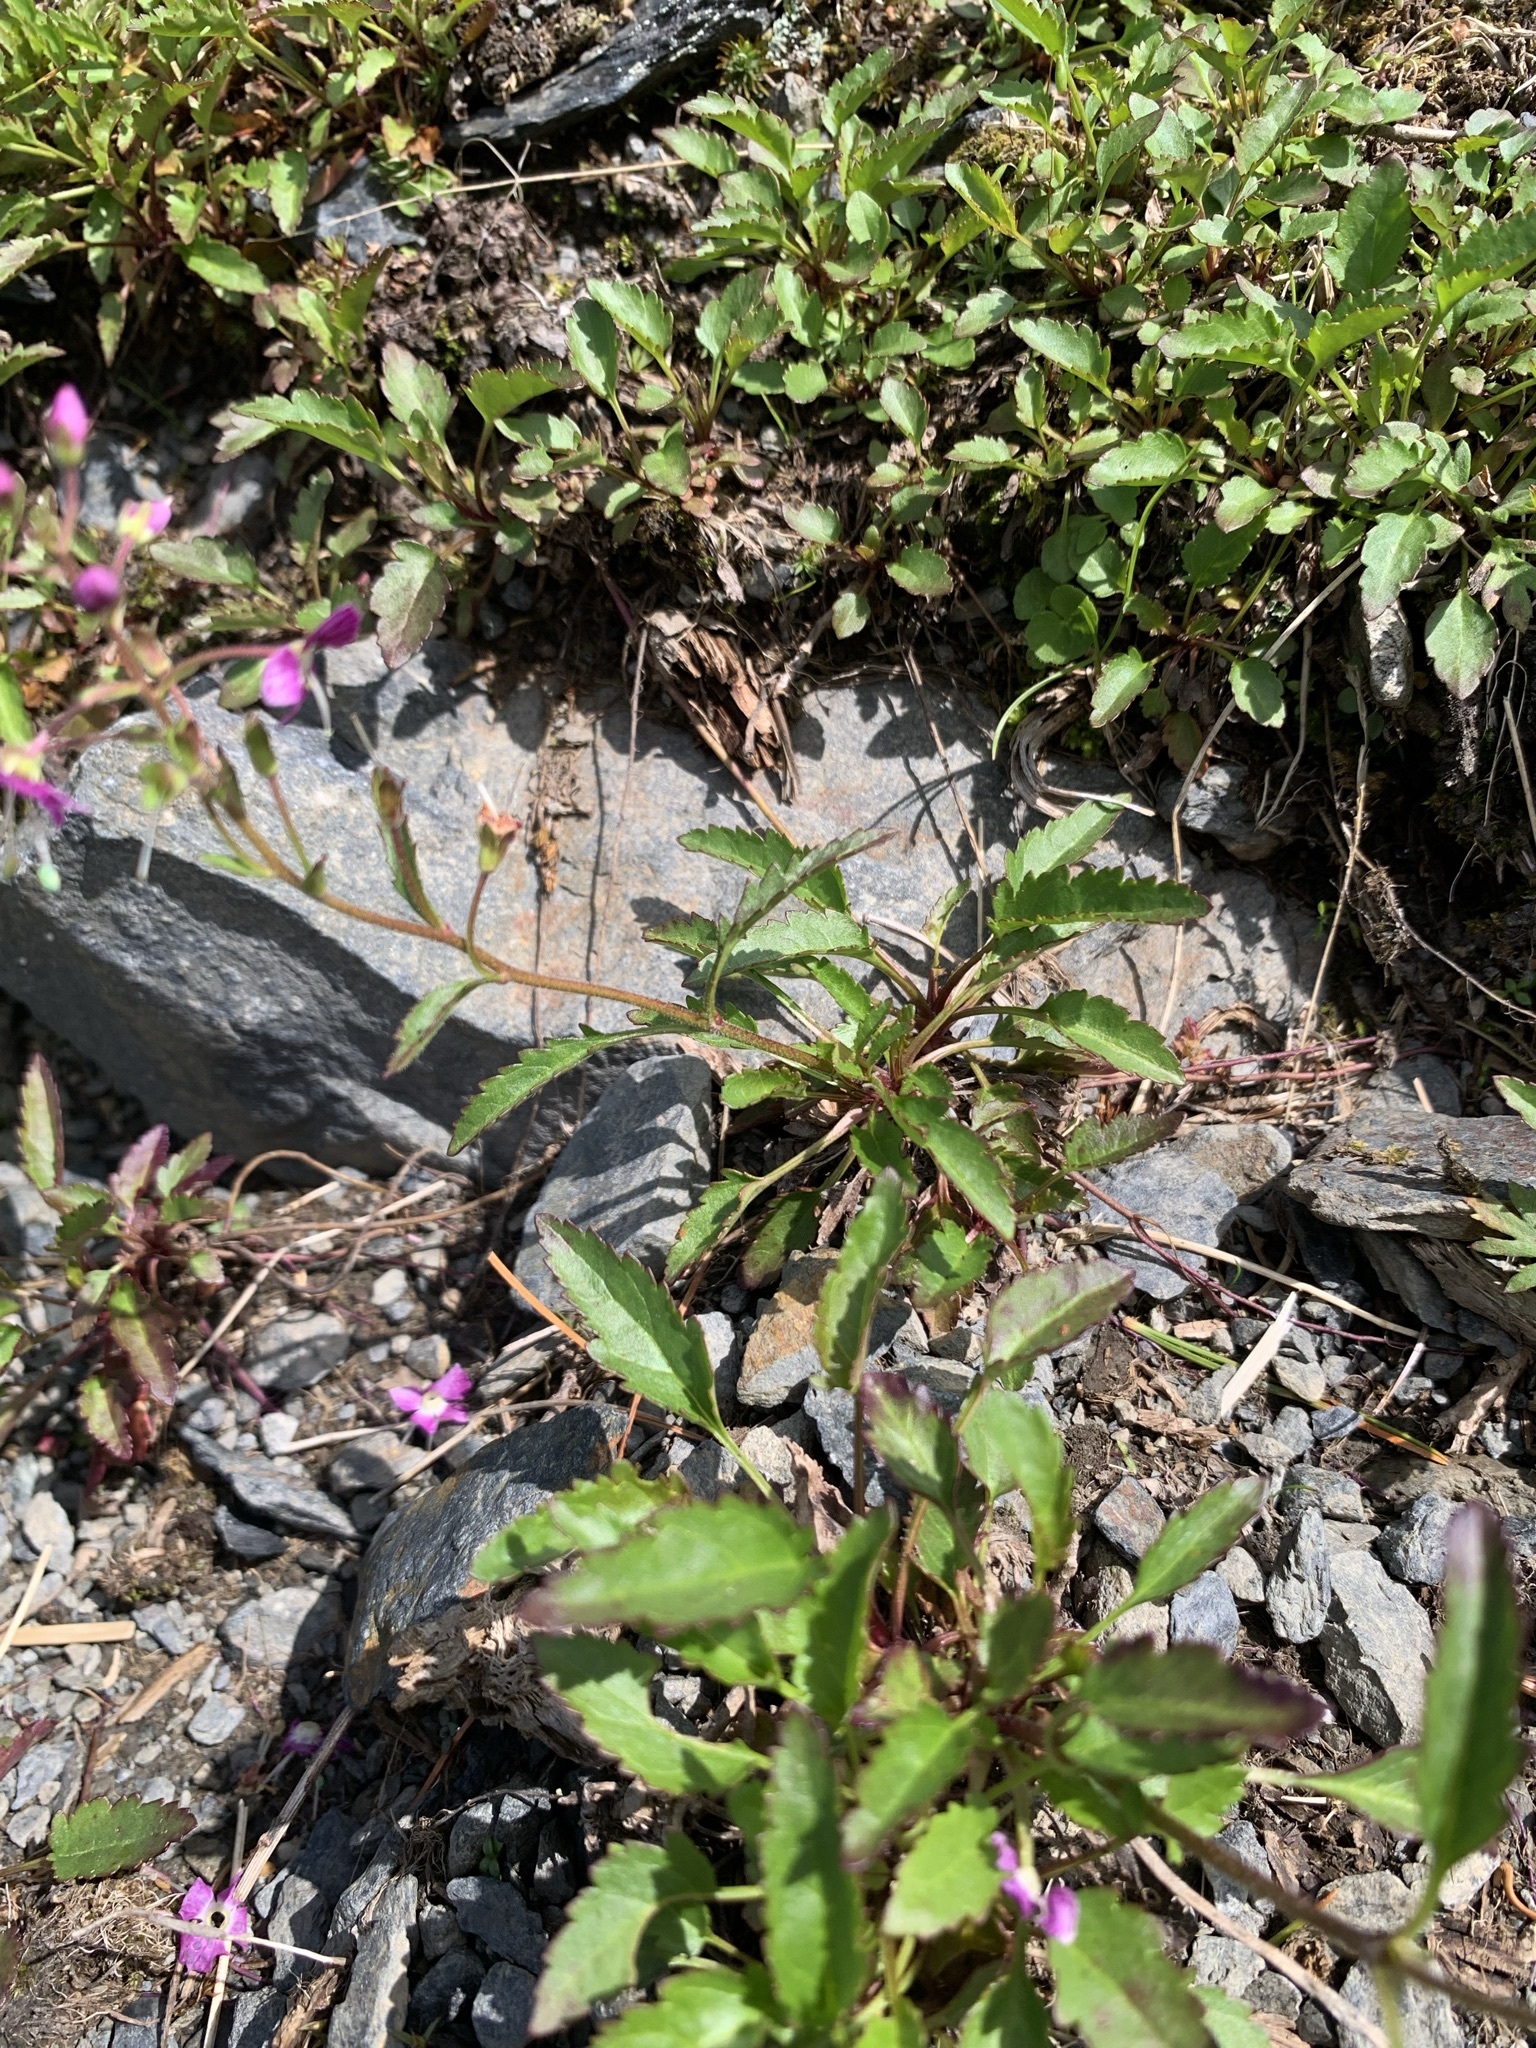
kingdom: Plantae
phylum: Tracheophyta
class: Magnoliopsida
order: Lamiales
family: Plantaginaceae
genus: Veronica
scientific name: Veronica schmidtiana
